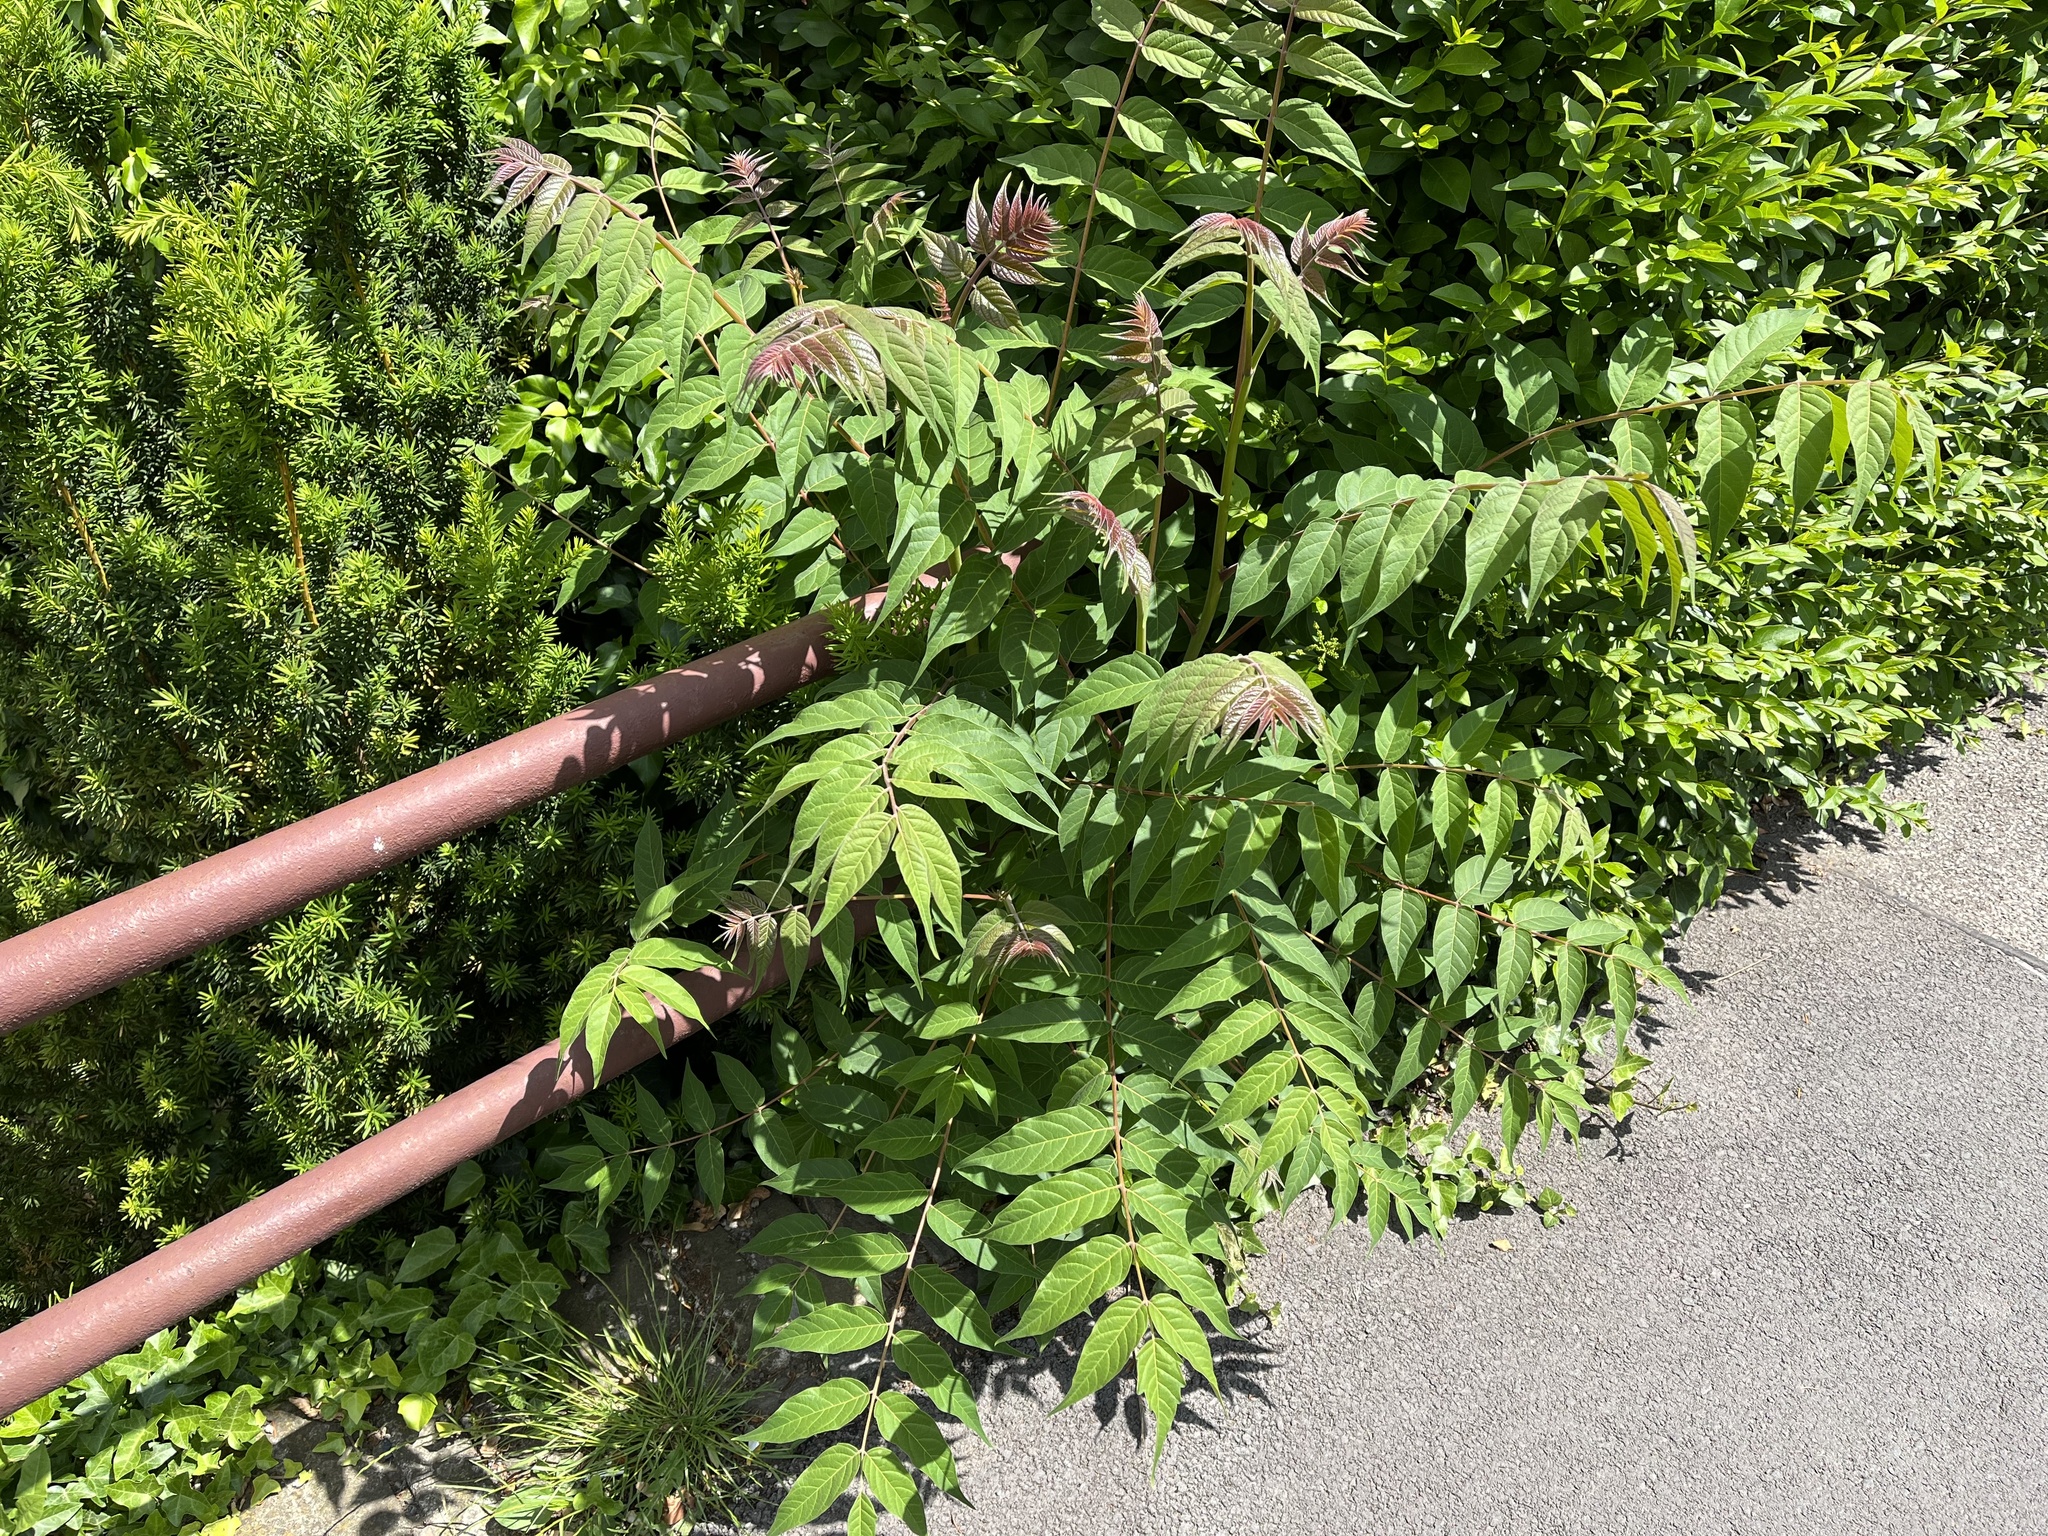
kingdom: Plantae
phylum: Tracheophyta
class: Magnoliopsida
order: Sapindales
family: Simaroubaceae
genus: Ailanthus
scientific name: Ailanthus altissima
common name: Tree-of-heaven
